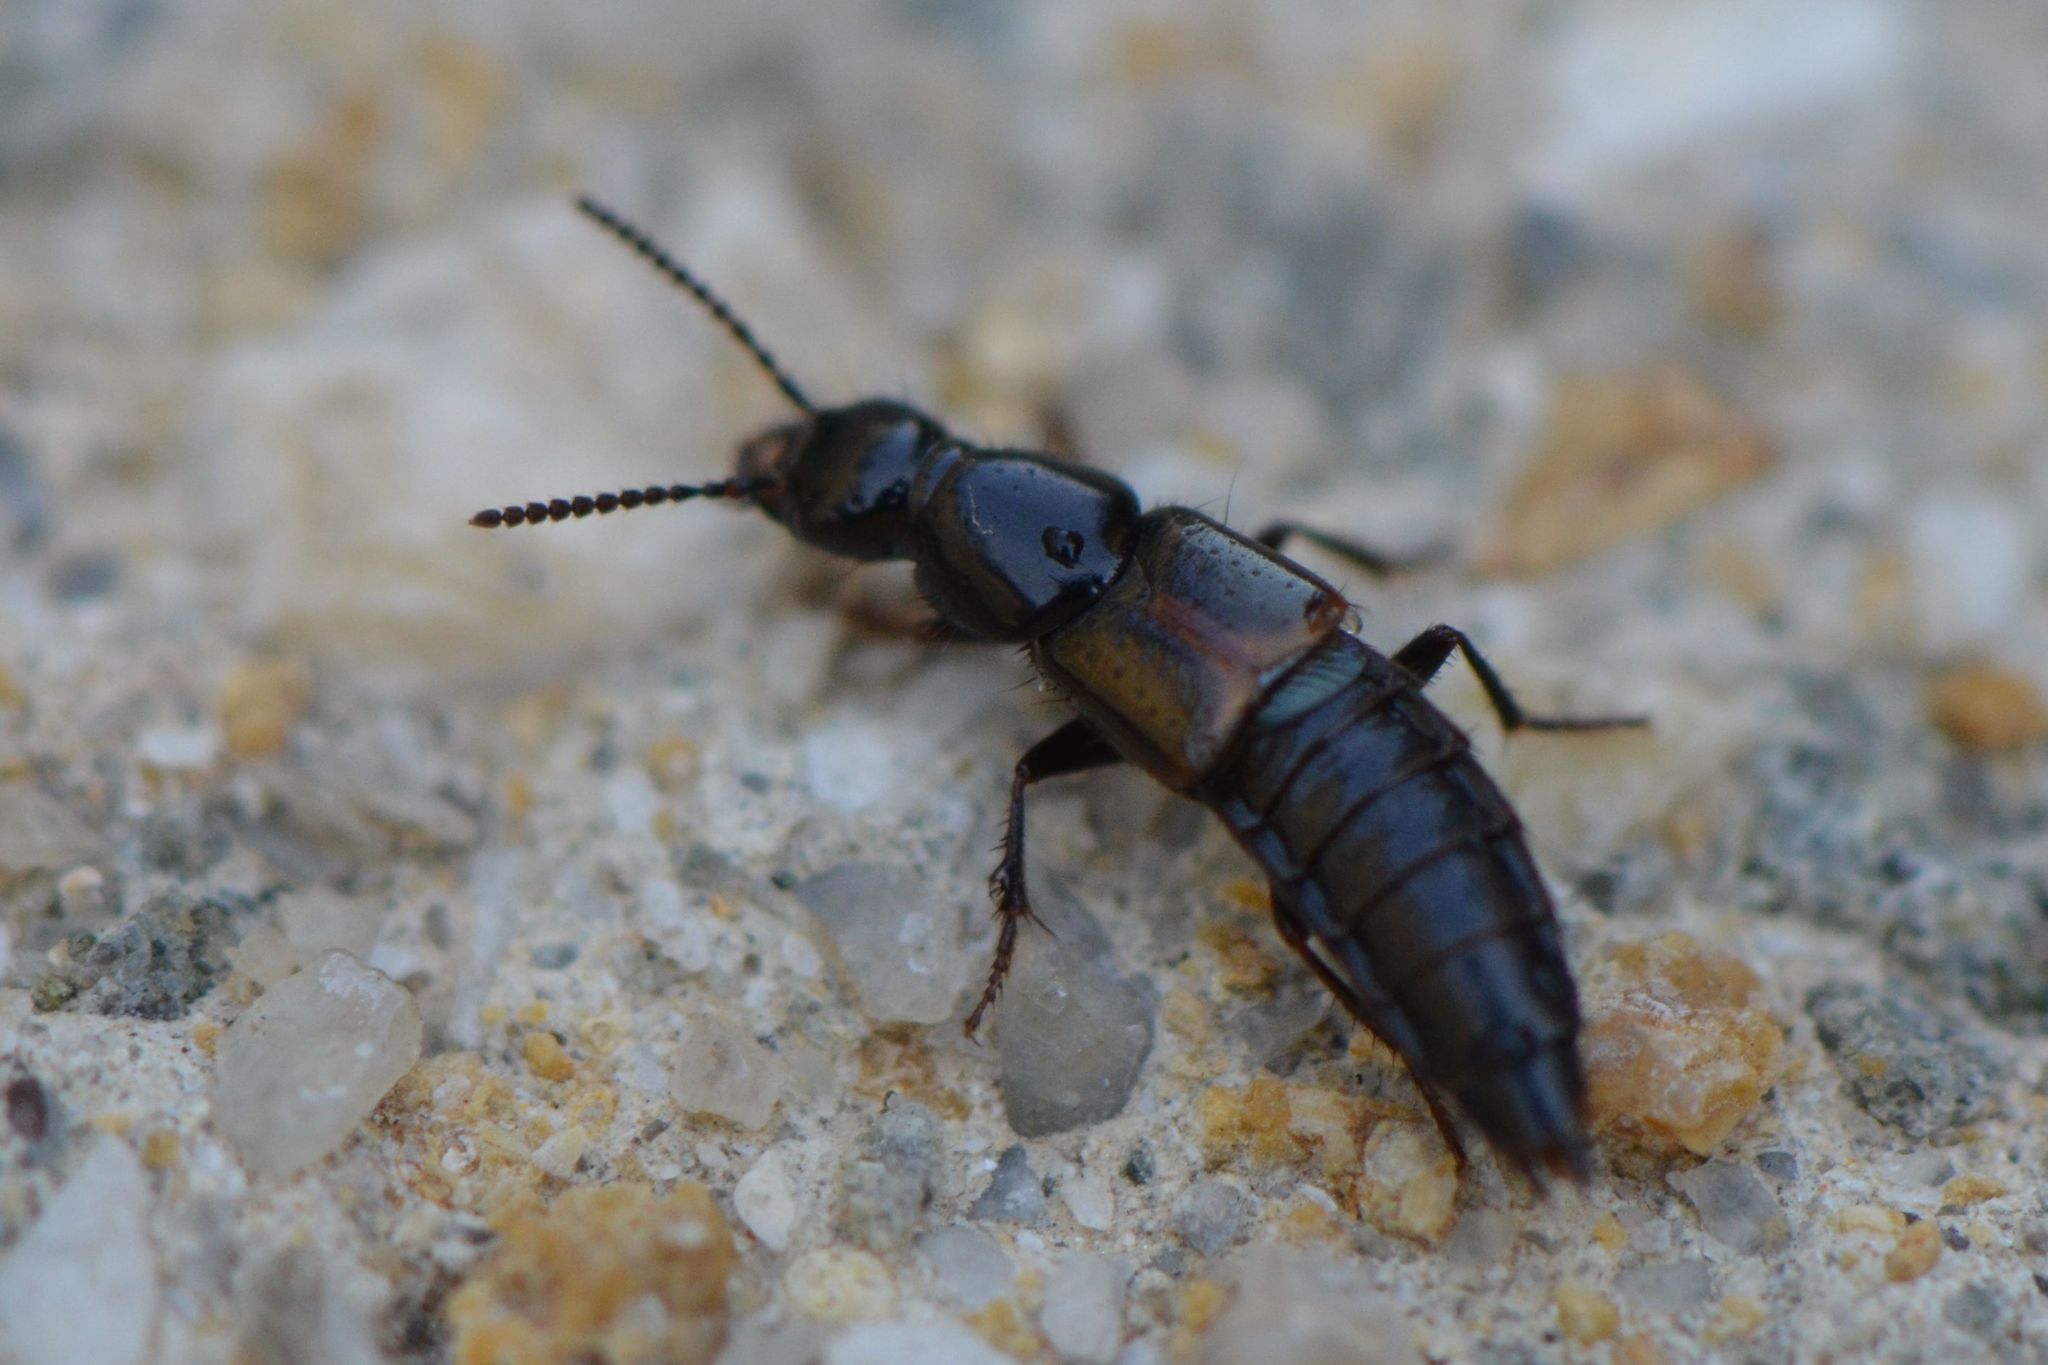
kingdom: Animalia
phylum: Arthropoda
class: Insecta
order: Coleoptera
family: Staphylinidae
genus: Quedius
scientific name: Quedius cinctus
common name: Large rove beetle
